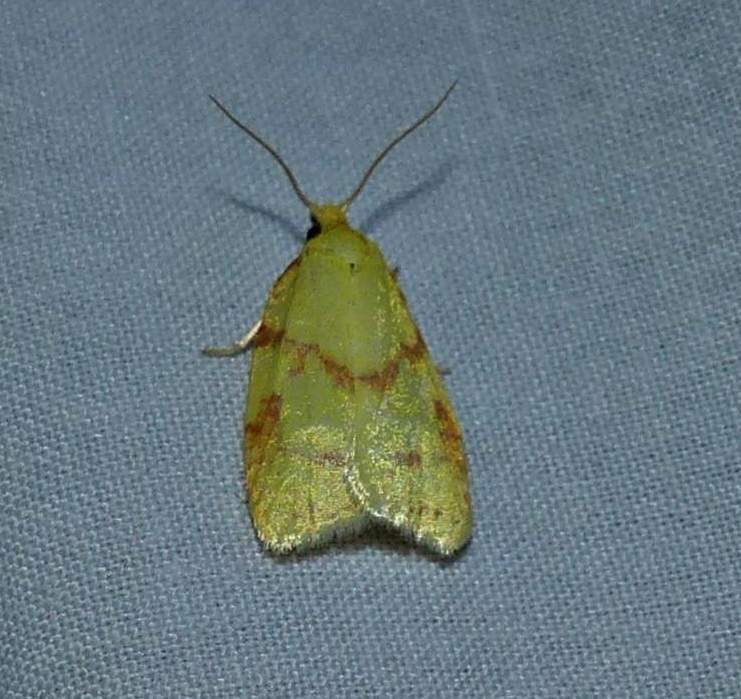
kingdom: Animalia
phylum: Arthropoda
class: Insecta
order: Lepidoptera
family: Tortricidae
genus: Sparganothis
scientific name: Sparganothis sulfureana
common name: Sparganothis fruitworm moth
